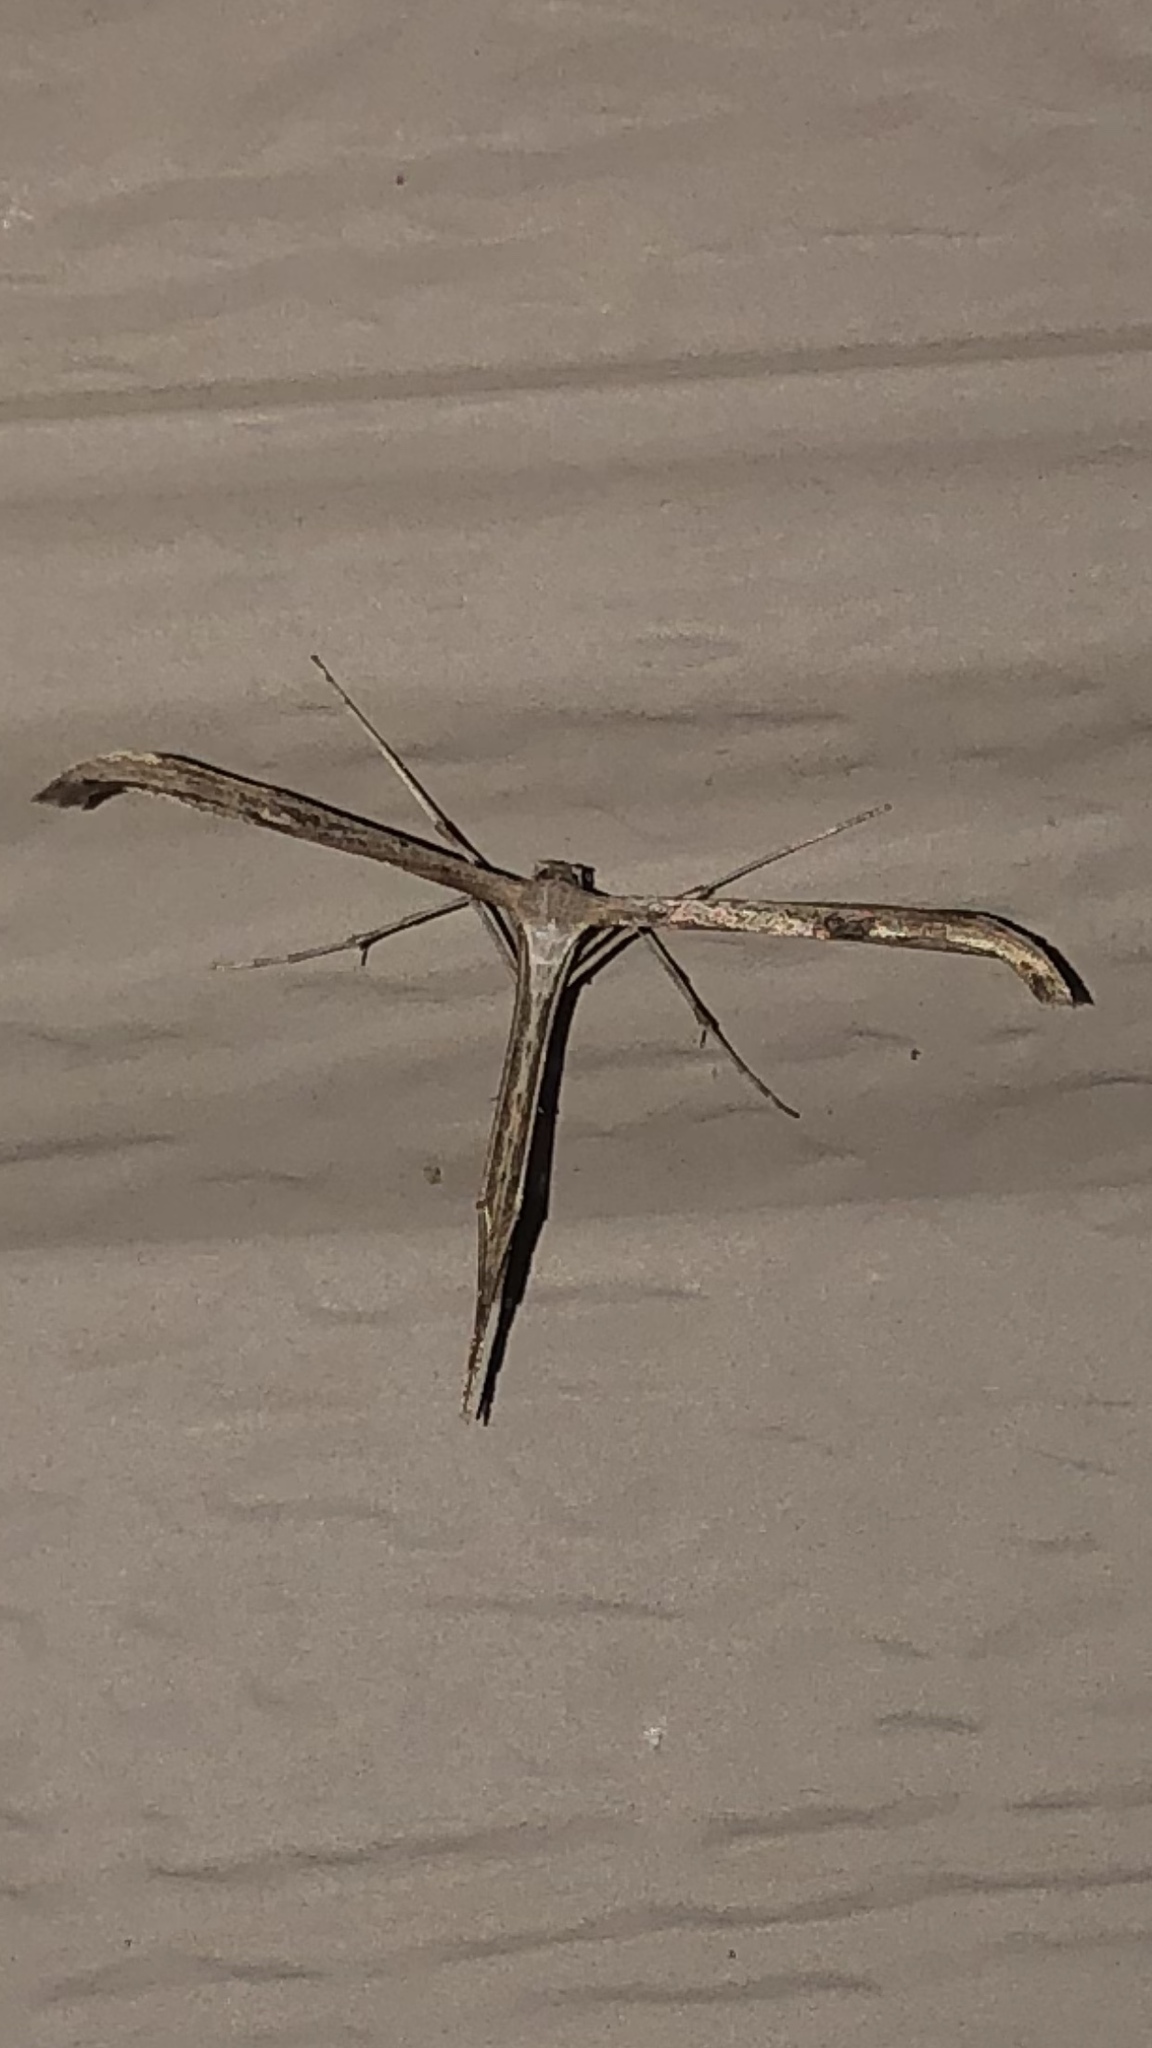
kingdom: Animalia
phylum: Arthropoda
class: Insecta
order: Lepidoptera
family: Pterophoridae
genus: Emmelina
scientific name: Emmelina monodactyla
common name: Common plume
